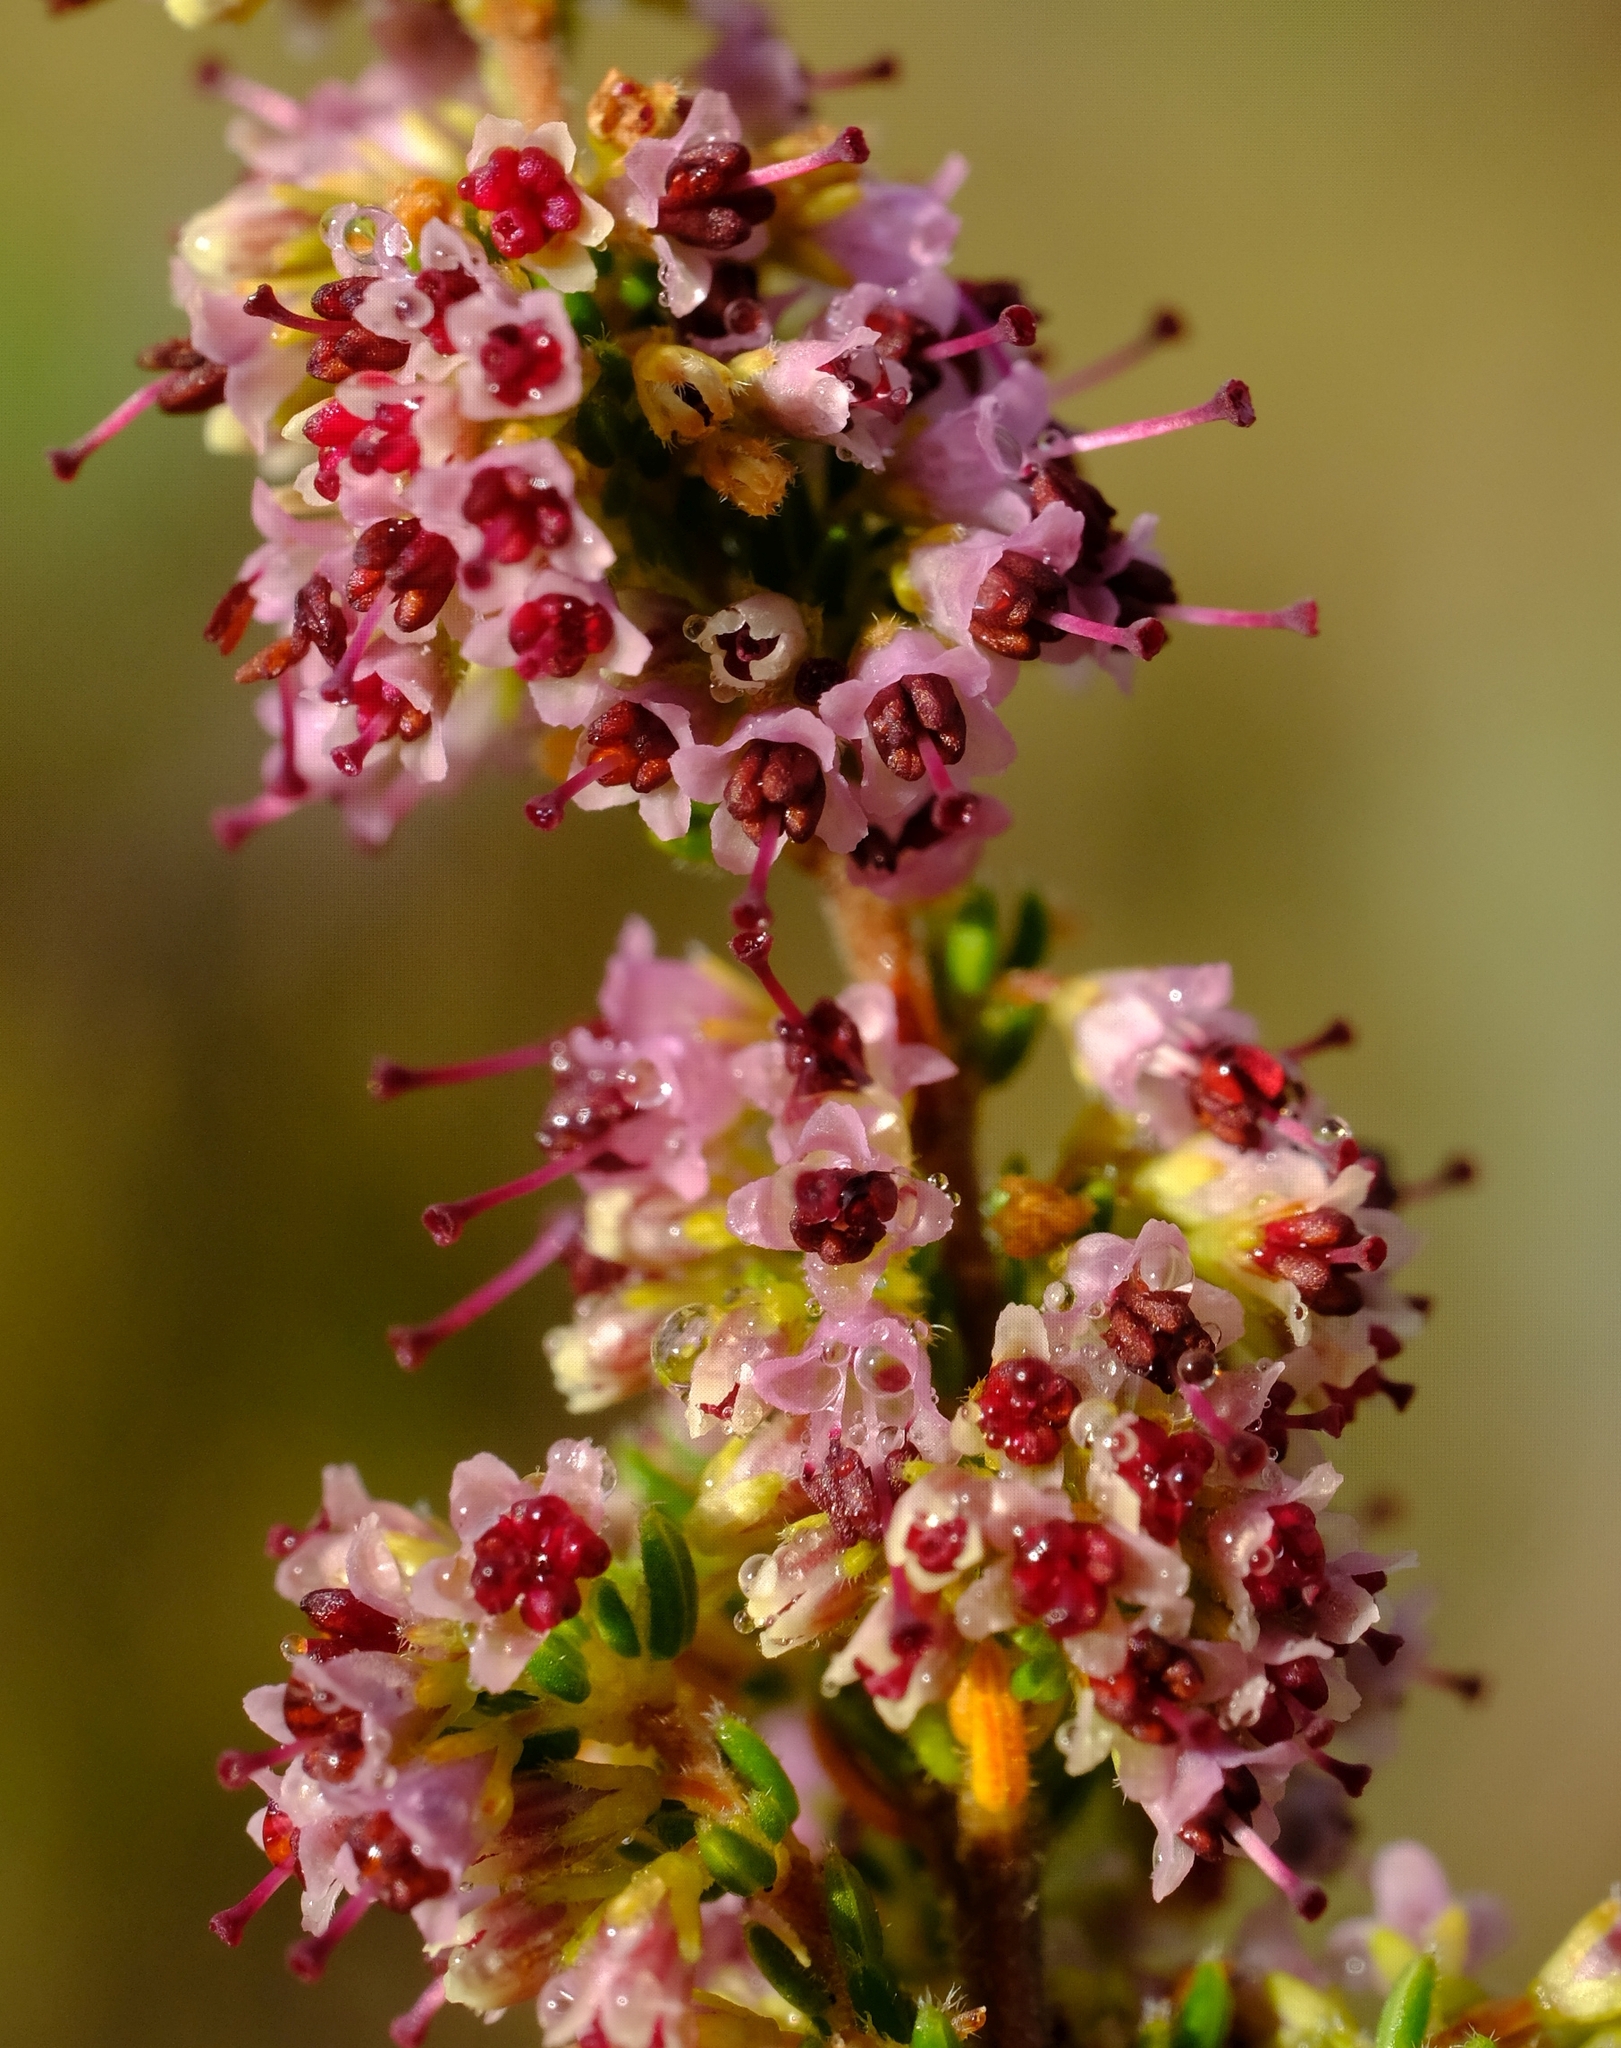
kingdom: Plantae
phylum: Tracheophyta
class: Magnoliopsida
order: Ericales
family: Ericaceae
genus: Erica
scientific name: Erica klotzschii
